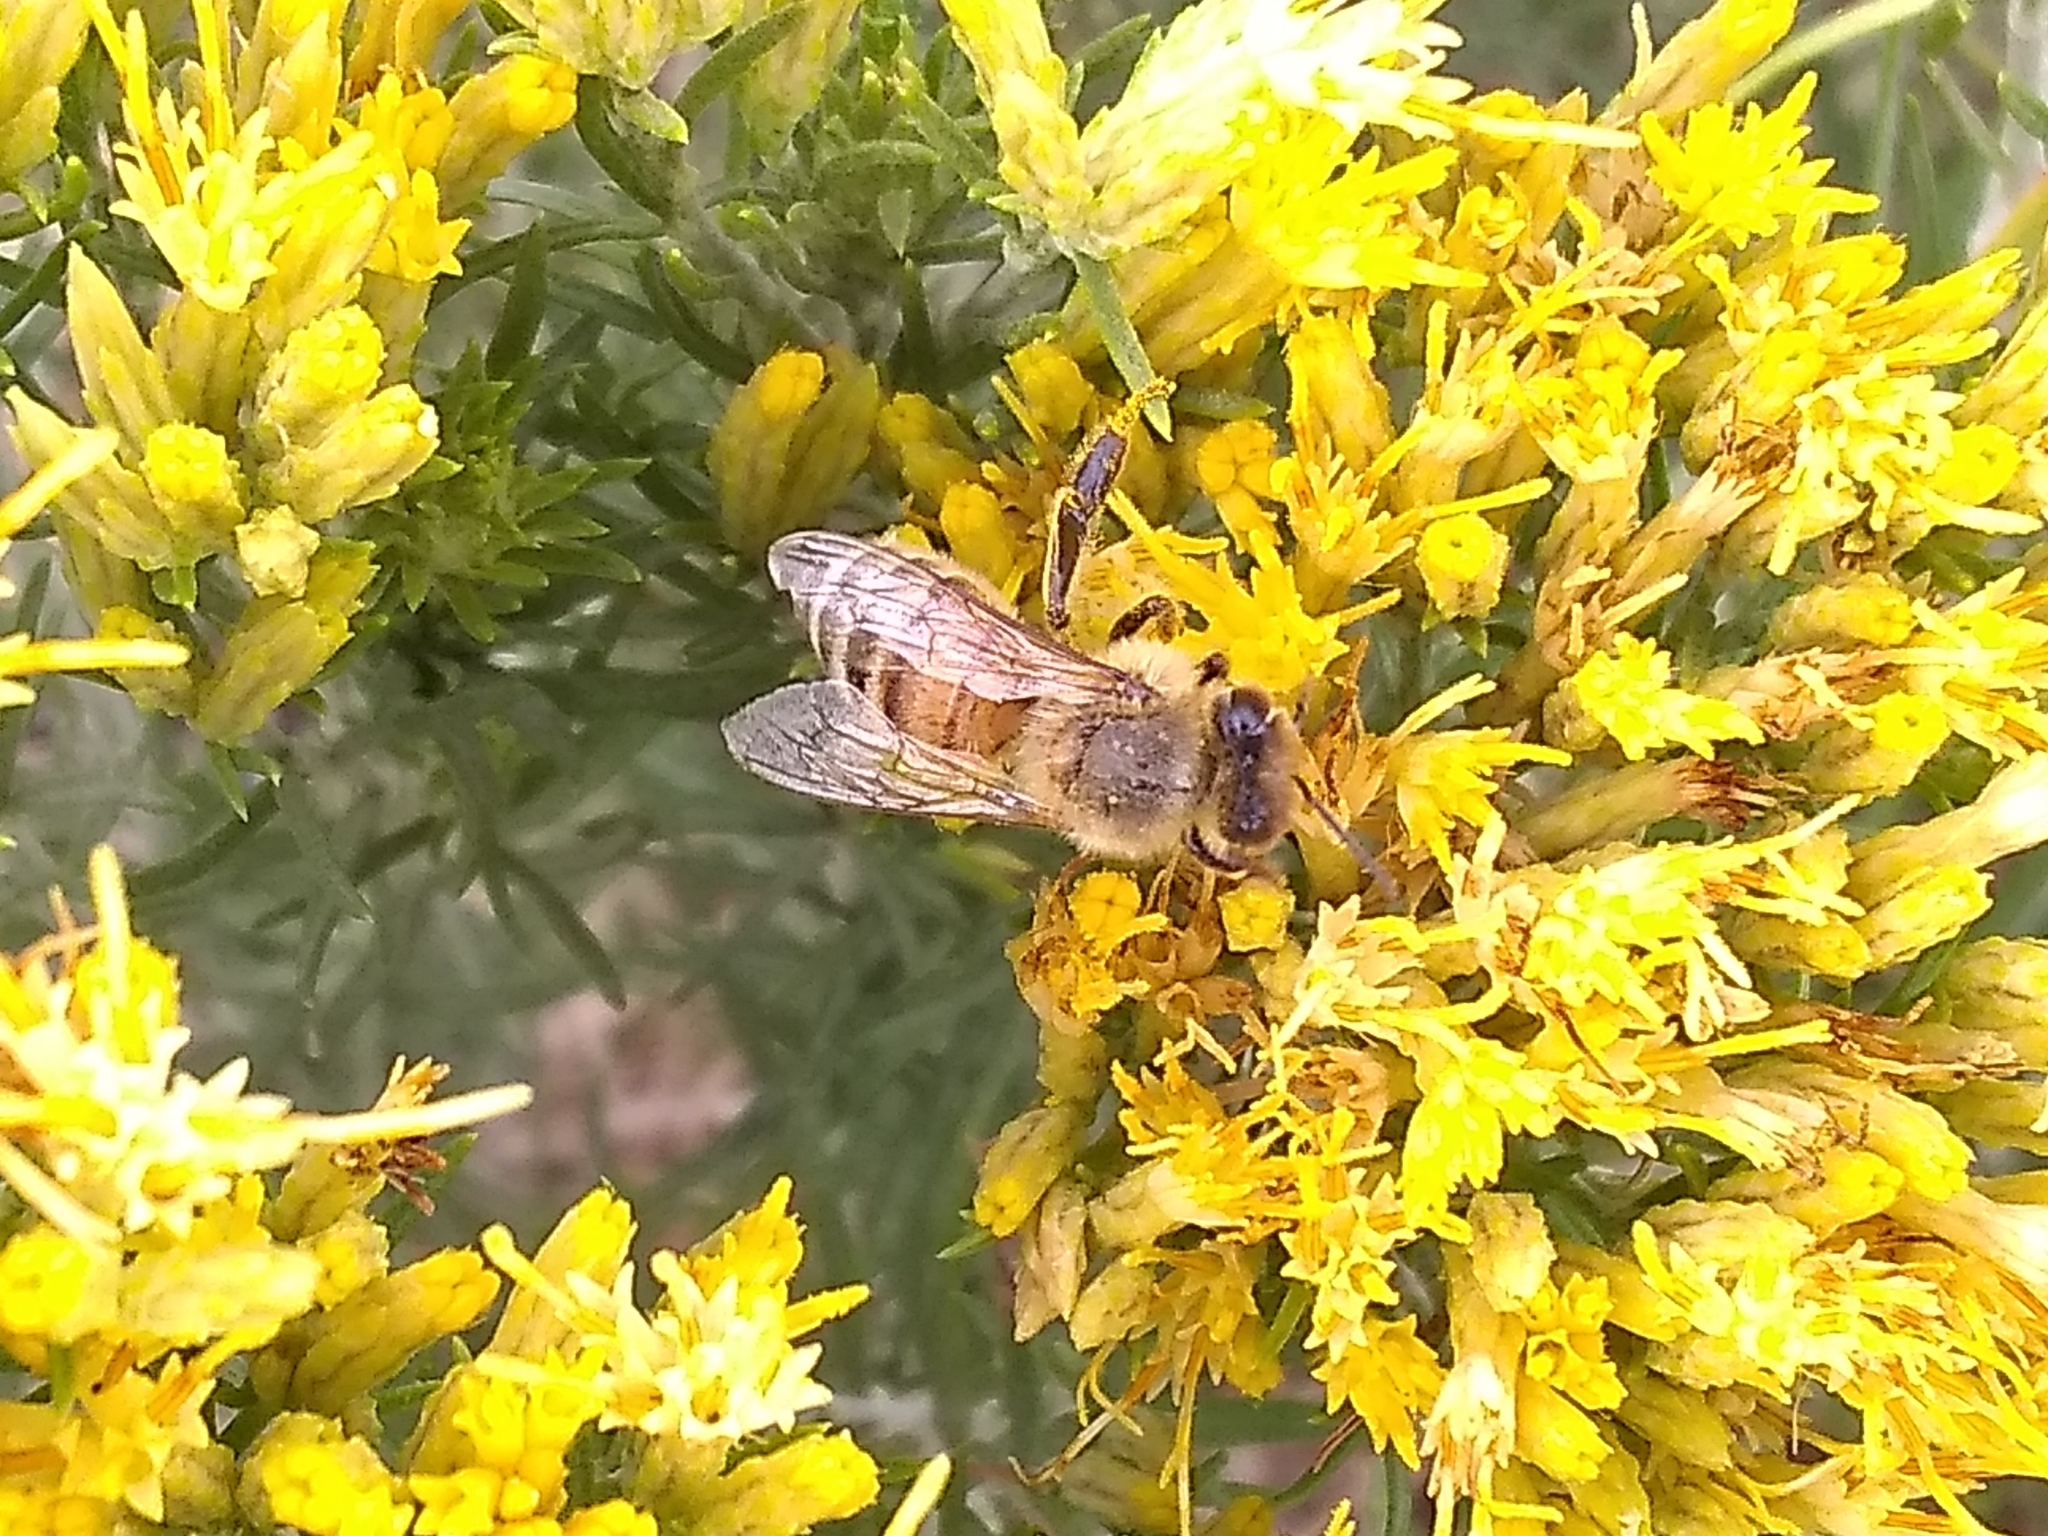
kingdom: Animalia
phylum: Arthropoda
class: Insecta
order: Hymenoptera
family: Apidae
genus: Apis
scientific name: Apis mellifera
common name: Honey bee
